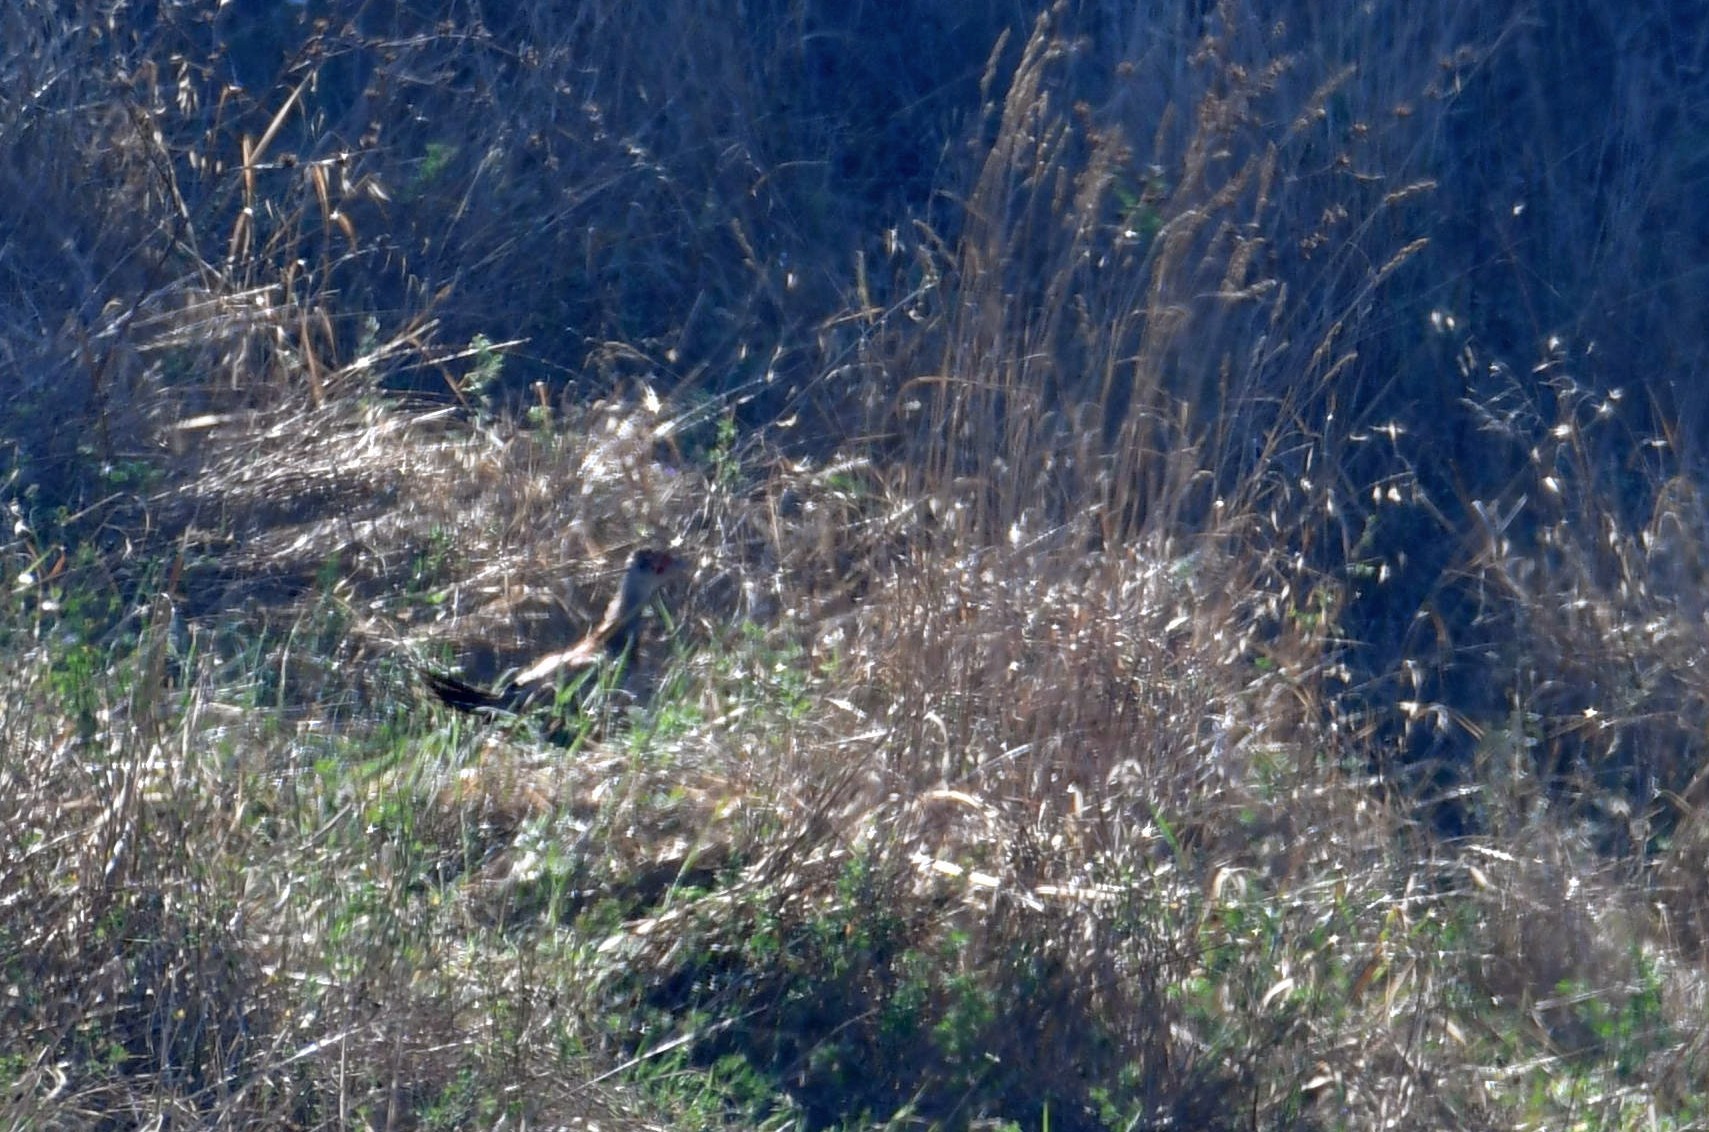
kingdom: Animalia
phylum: Chordata
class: Aves
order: Galliformes
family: Phasianidae
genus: Phasianus
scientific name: Phasianus colchicus
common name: Common pheasant
